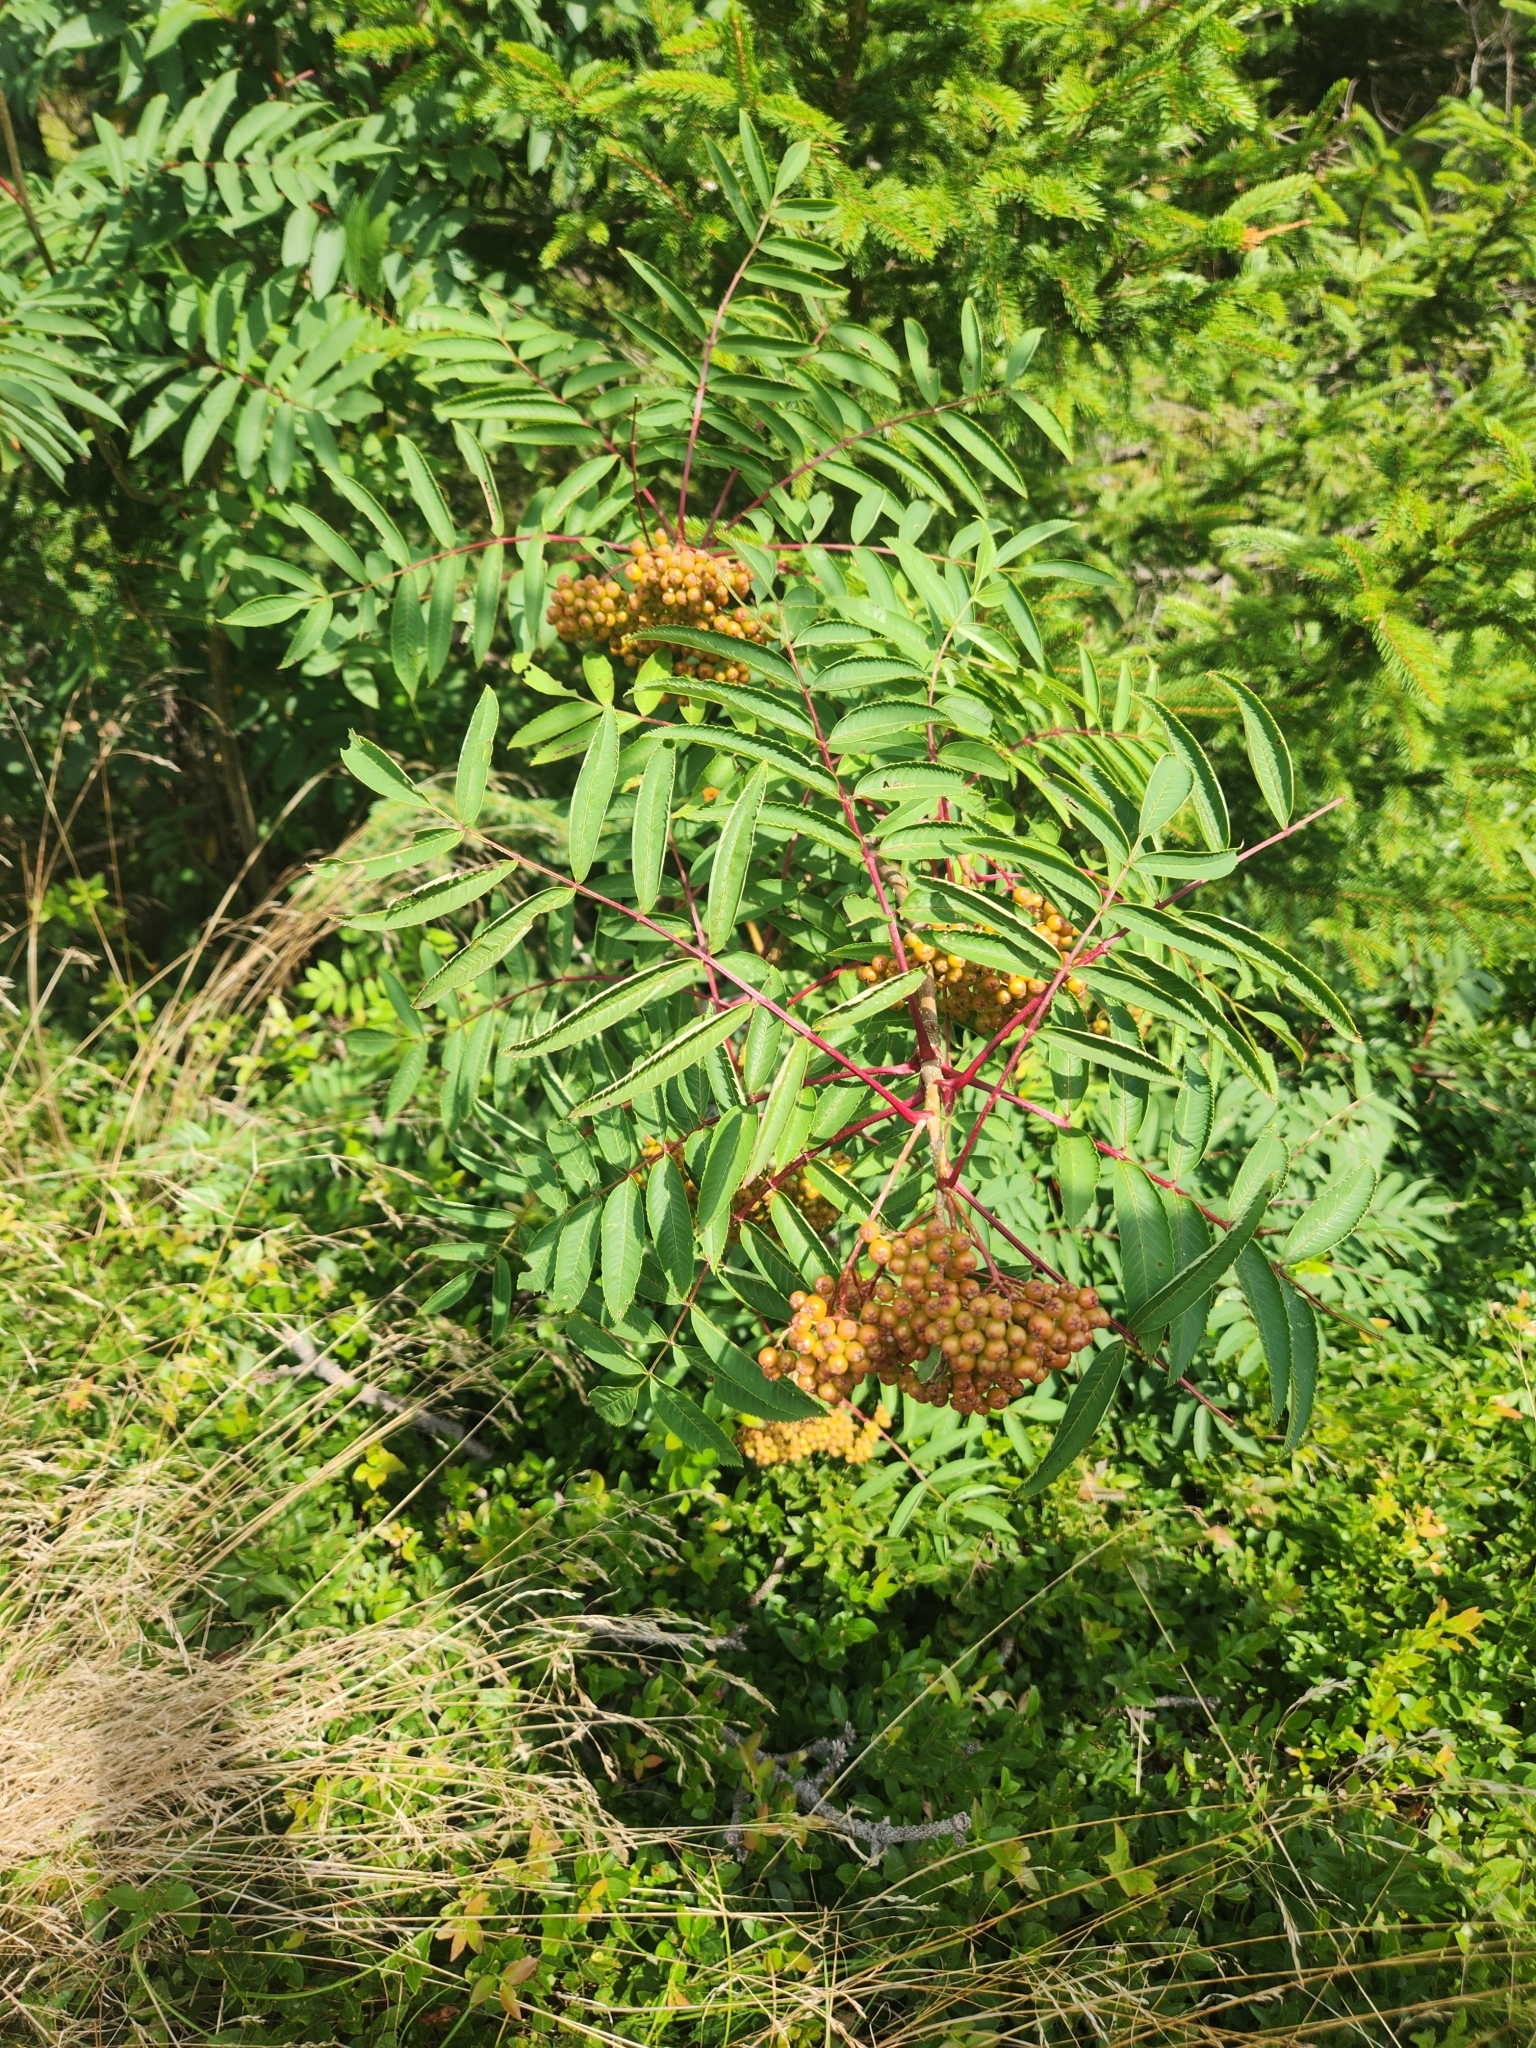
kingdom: Plantae
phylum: Tracheophyta
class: Magnoliopsida
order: Rosales
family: Rosaceae
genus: Sorbus
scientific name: Sorbus americana
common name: American mountain-ash
